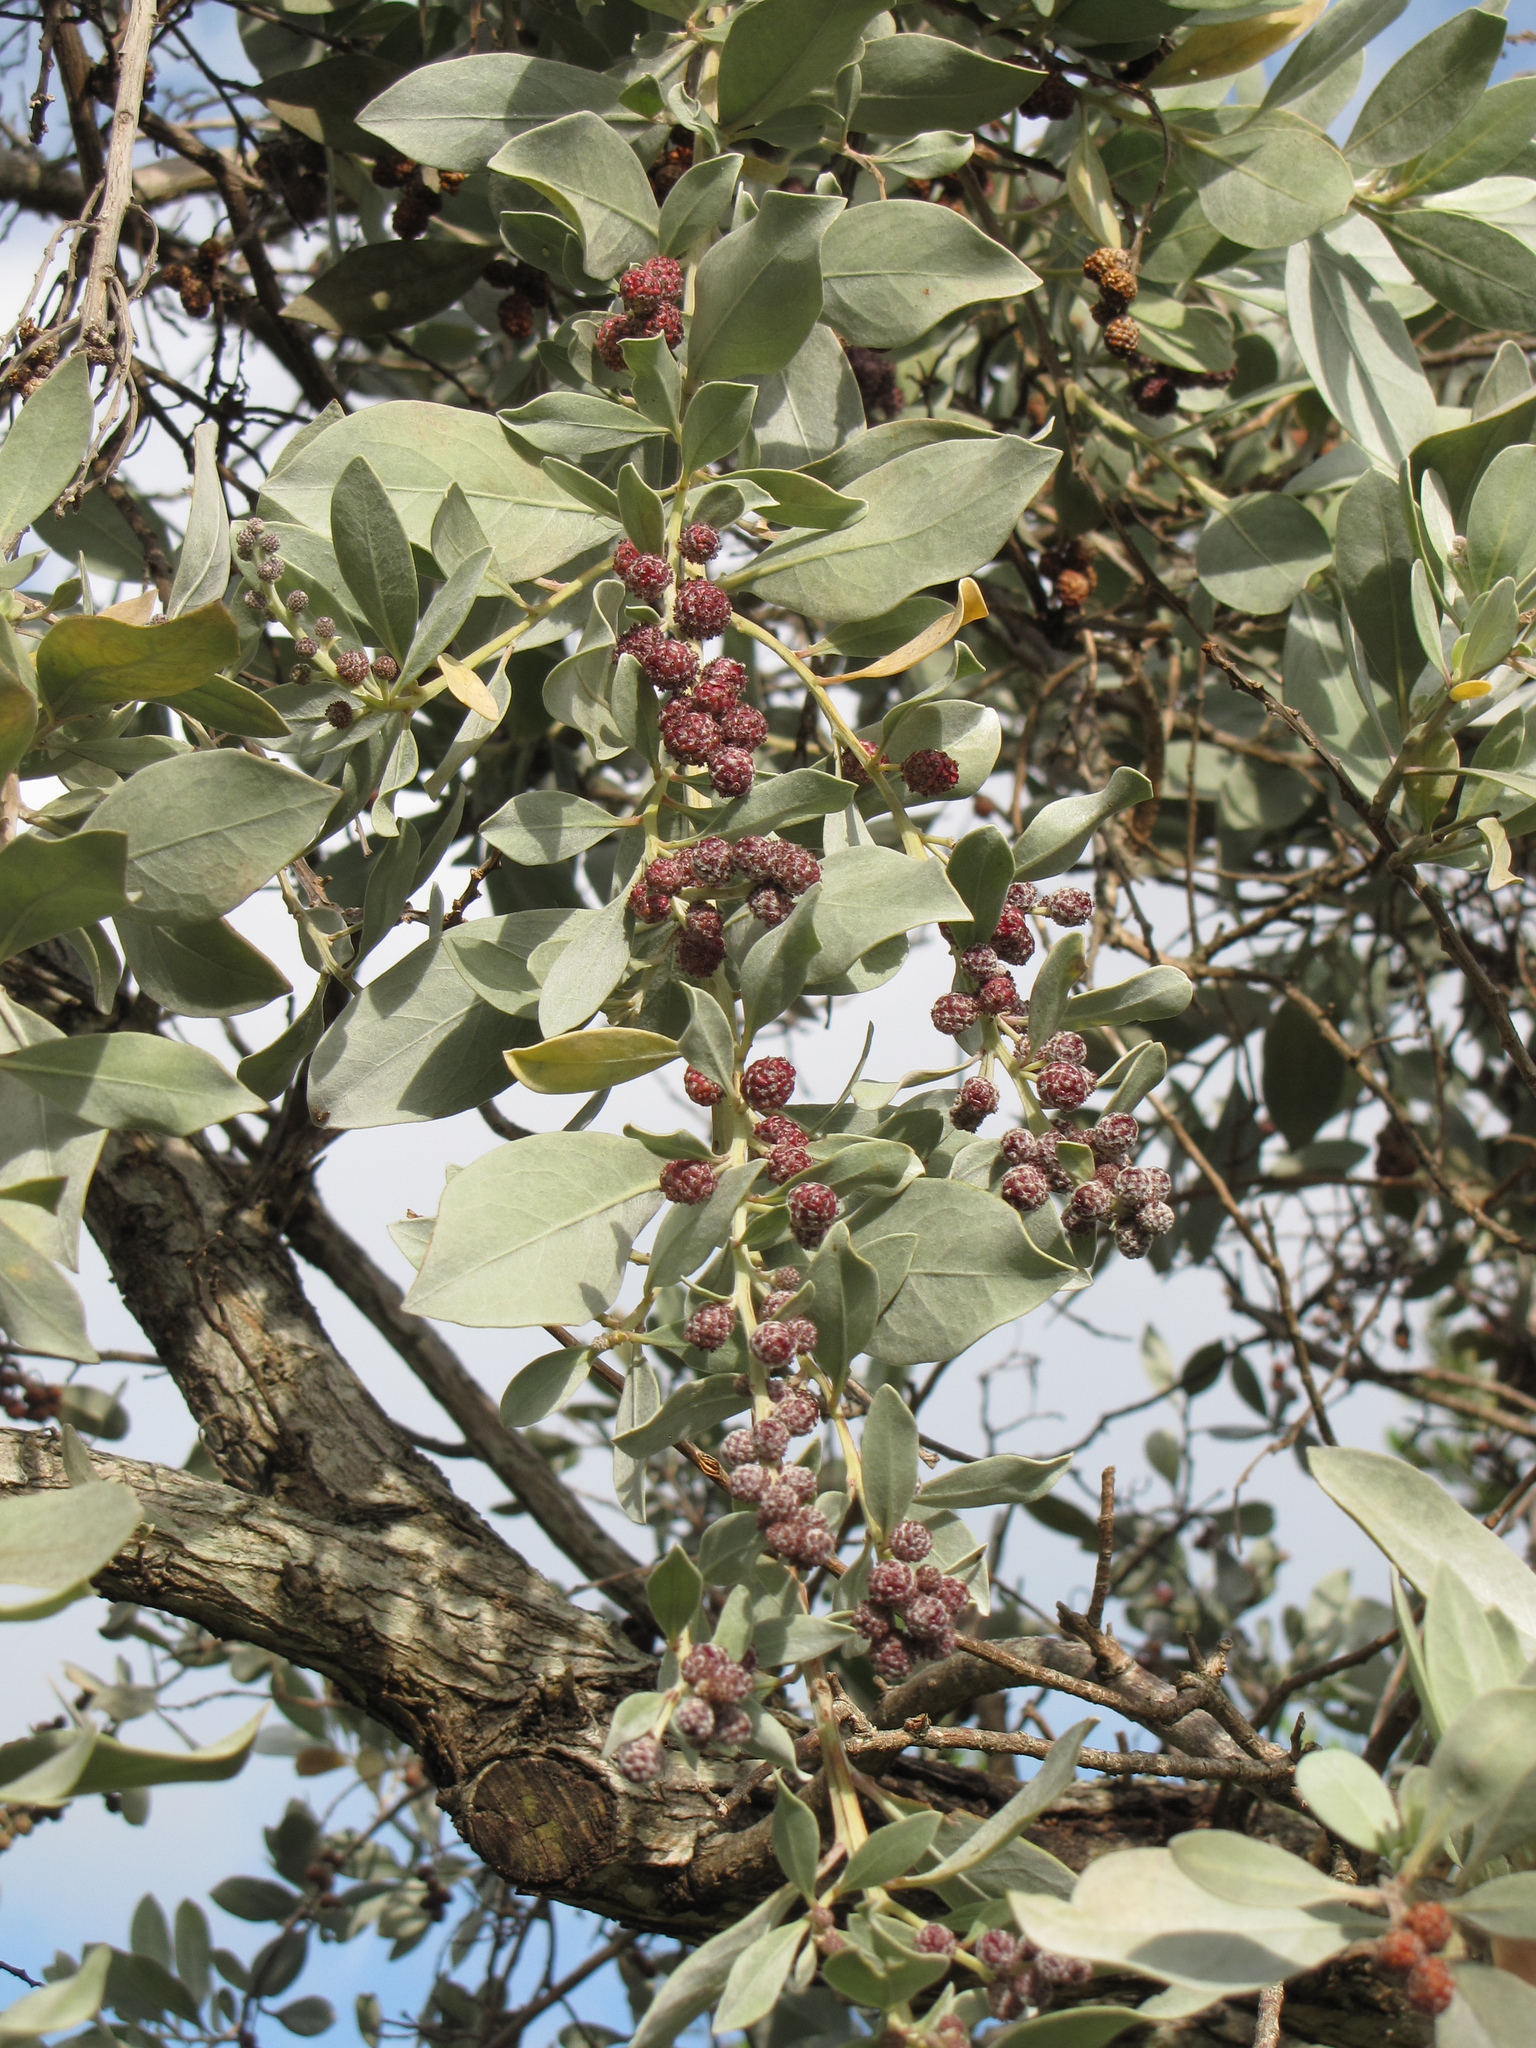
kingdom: Plantae
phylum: Tracheophyta
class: Magnoliopsida
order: Myrtales
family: Combretaceae
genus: Conocarpus
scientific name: Conocarpus erectus
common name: Button mangrove
